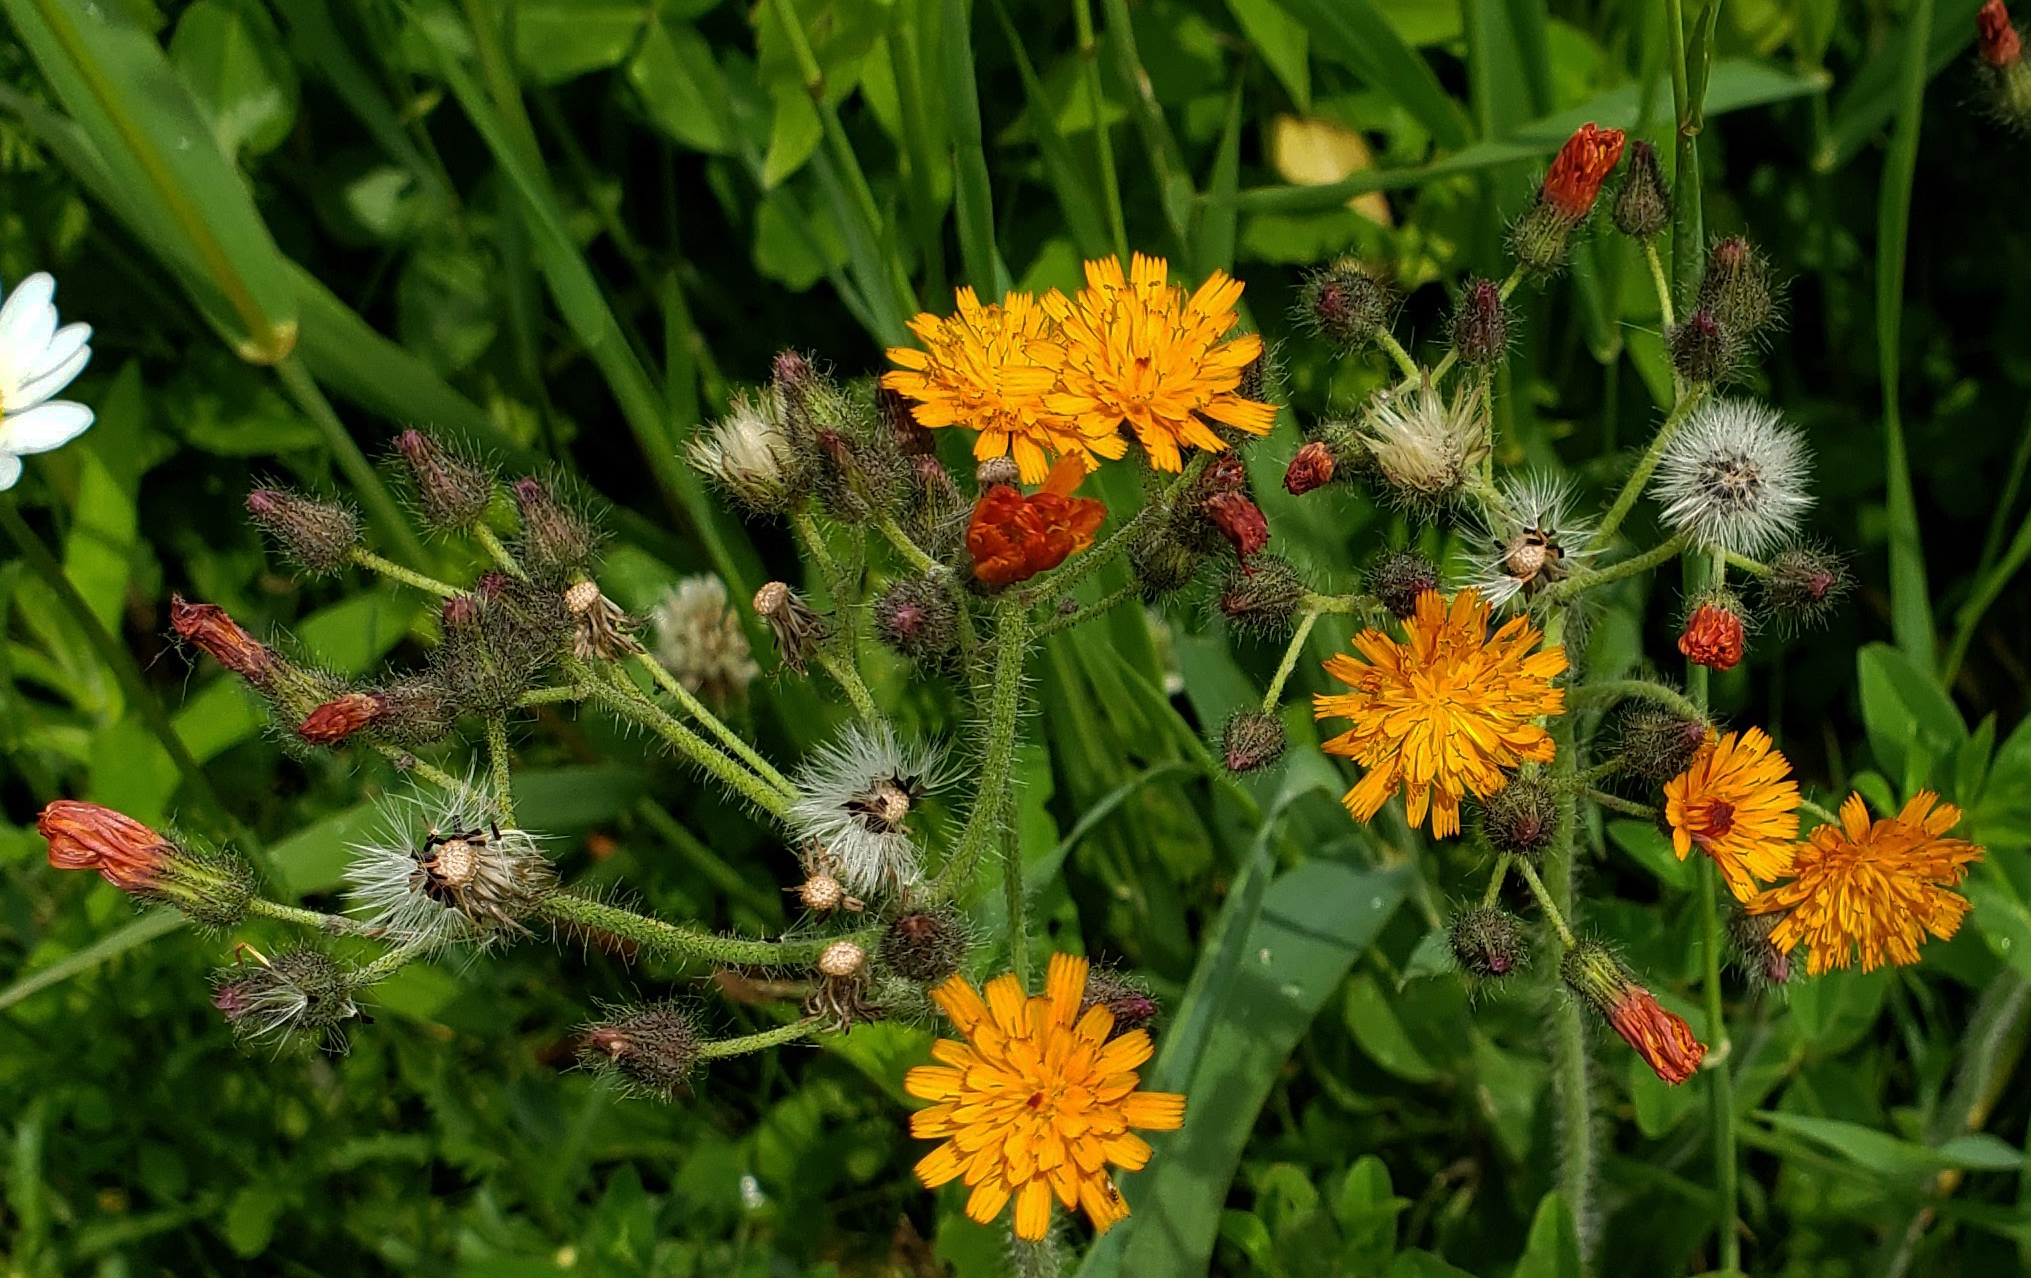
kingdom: Plantae
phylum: Tracheophyta
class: Magnoliopsida
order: Asterales
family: Asteraceae
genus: Pilosella
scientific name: Pilosella aurantiaca
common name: Fox-and-cubs
